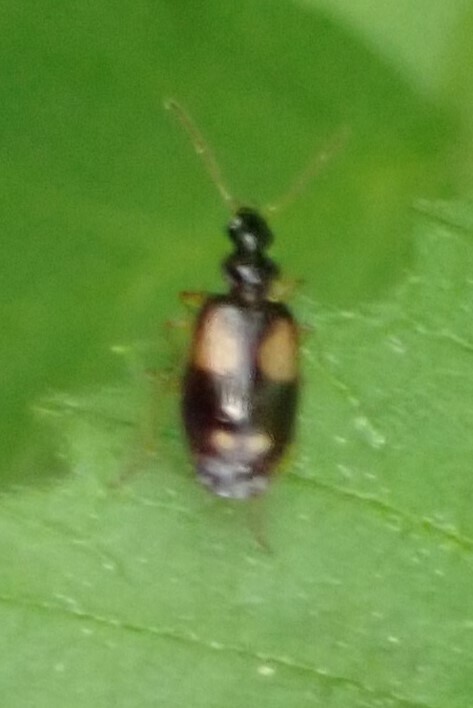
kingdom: Animalia
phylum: Arthropoda
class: Insecta
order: Coleoptera
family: Carabidae
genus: Lebia
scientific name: Lebia ornata
